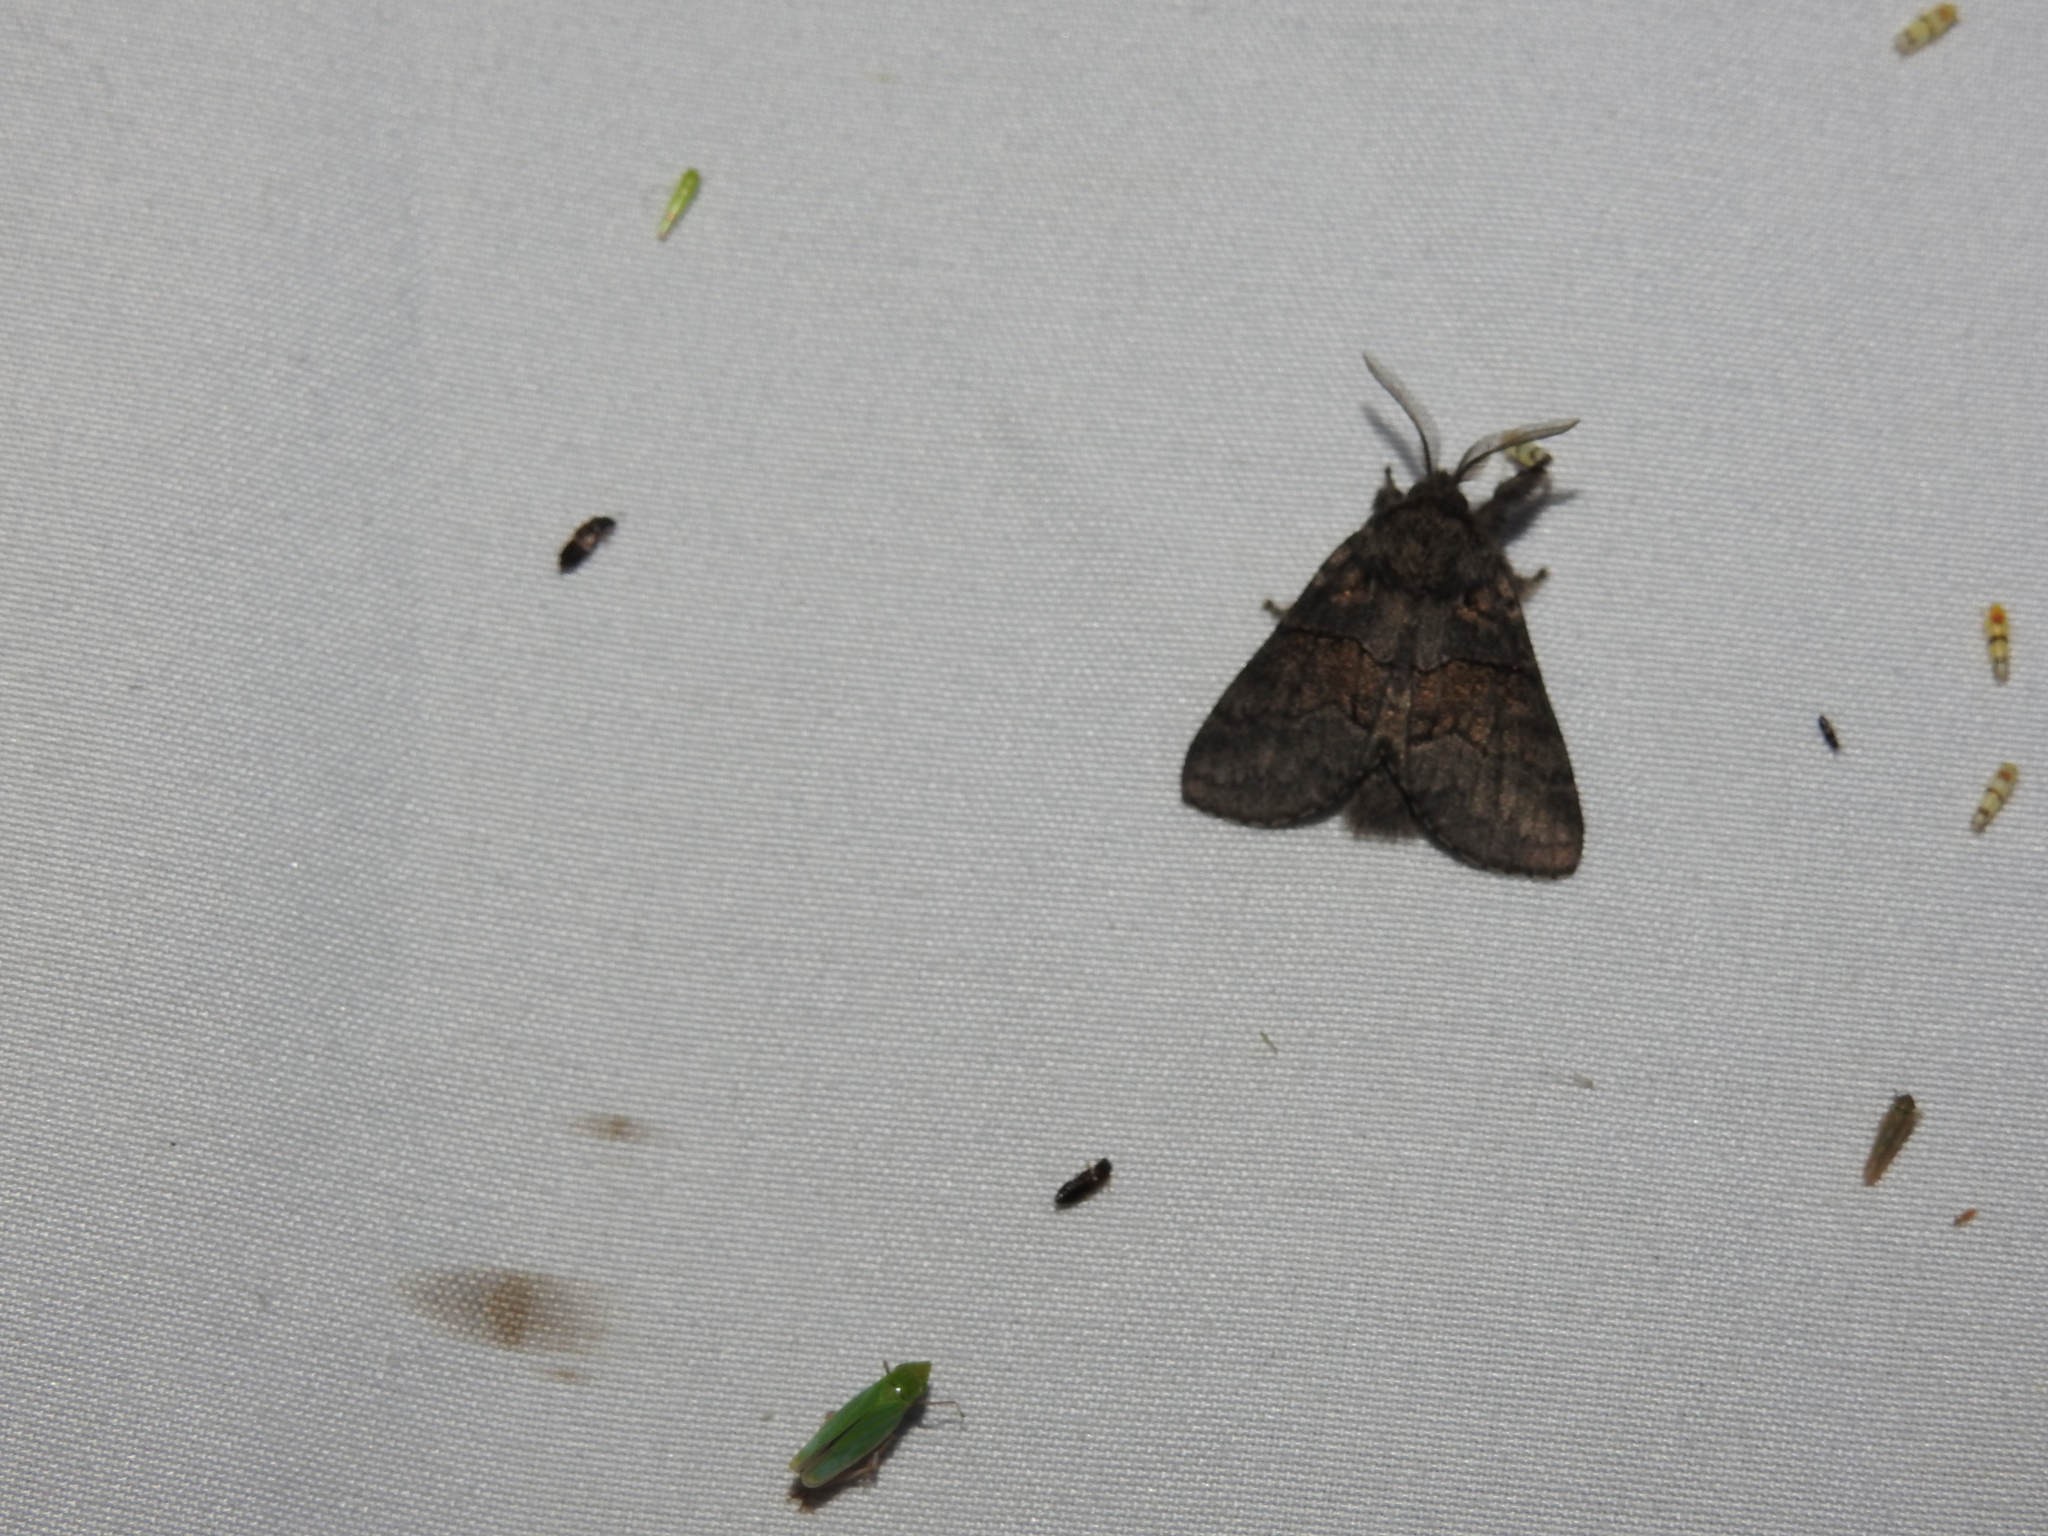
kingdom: Animalia
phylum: Arthropoda
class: Insecta
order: Lepidoptera
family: Notodontidae
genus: Gluphisia
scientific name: Gluphisia septentrionis
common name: Common gluphisia
